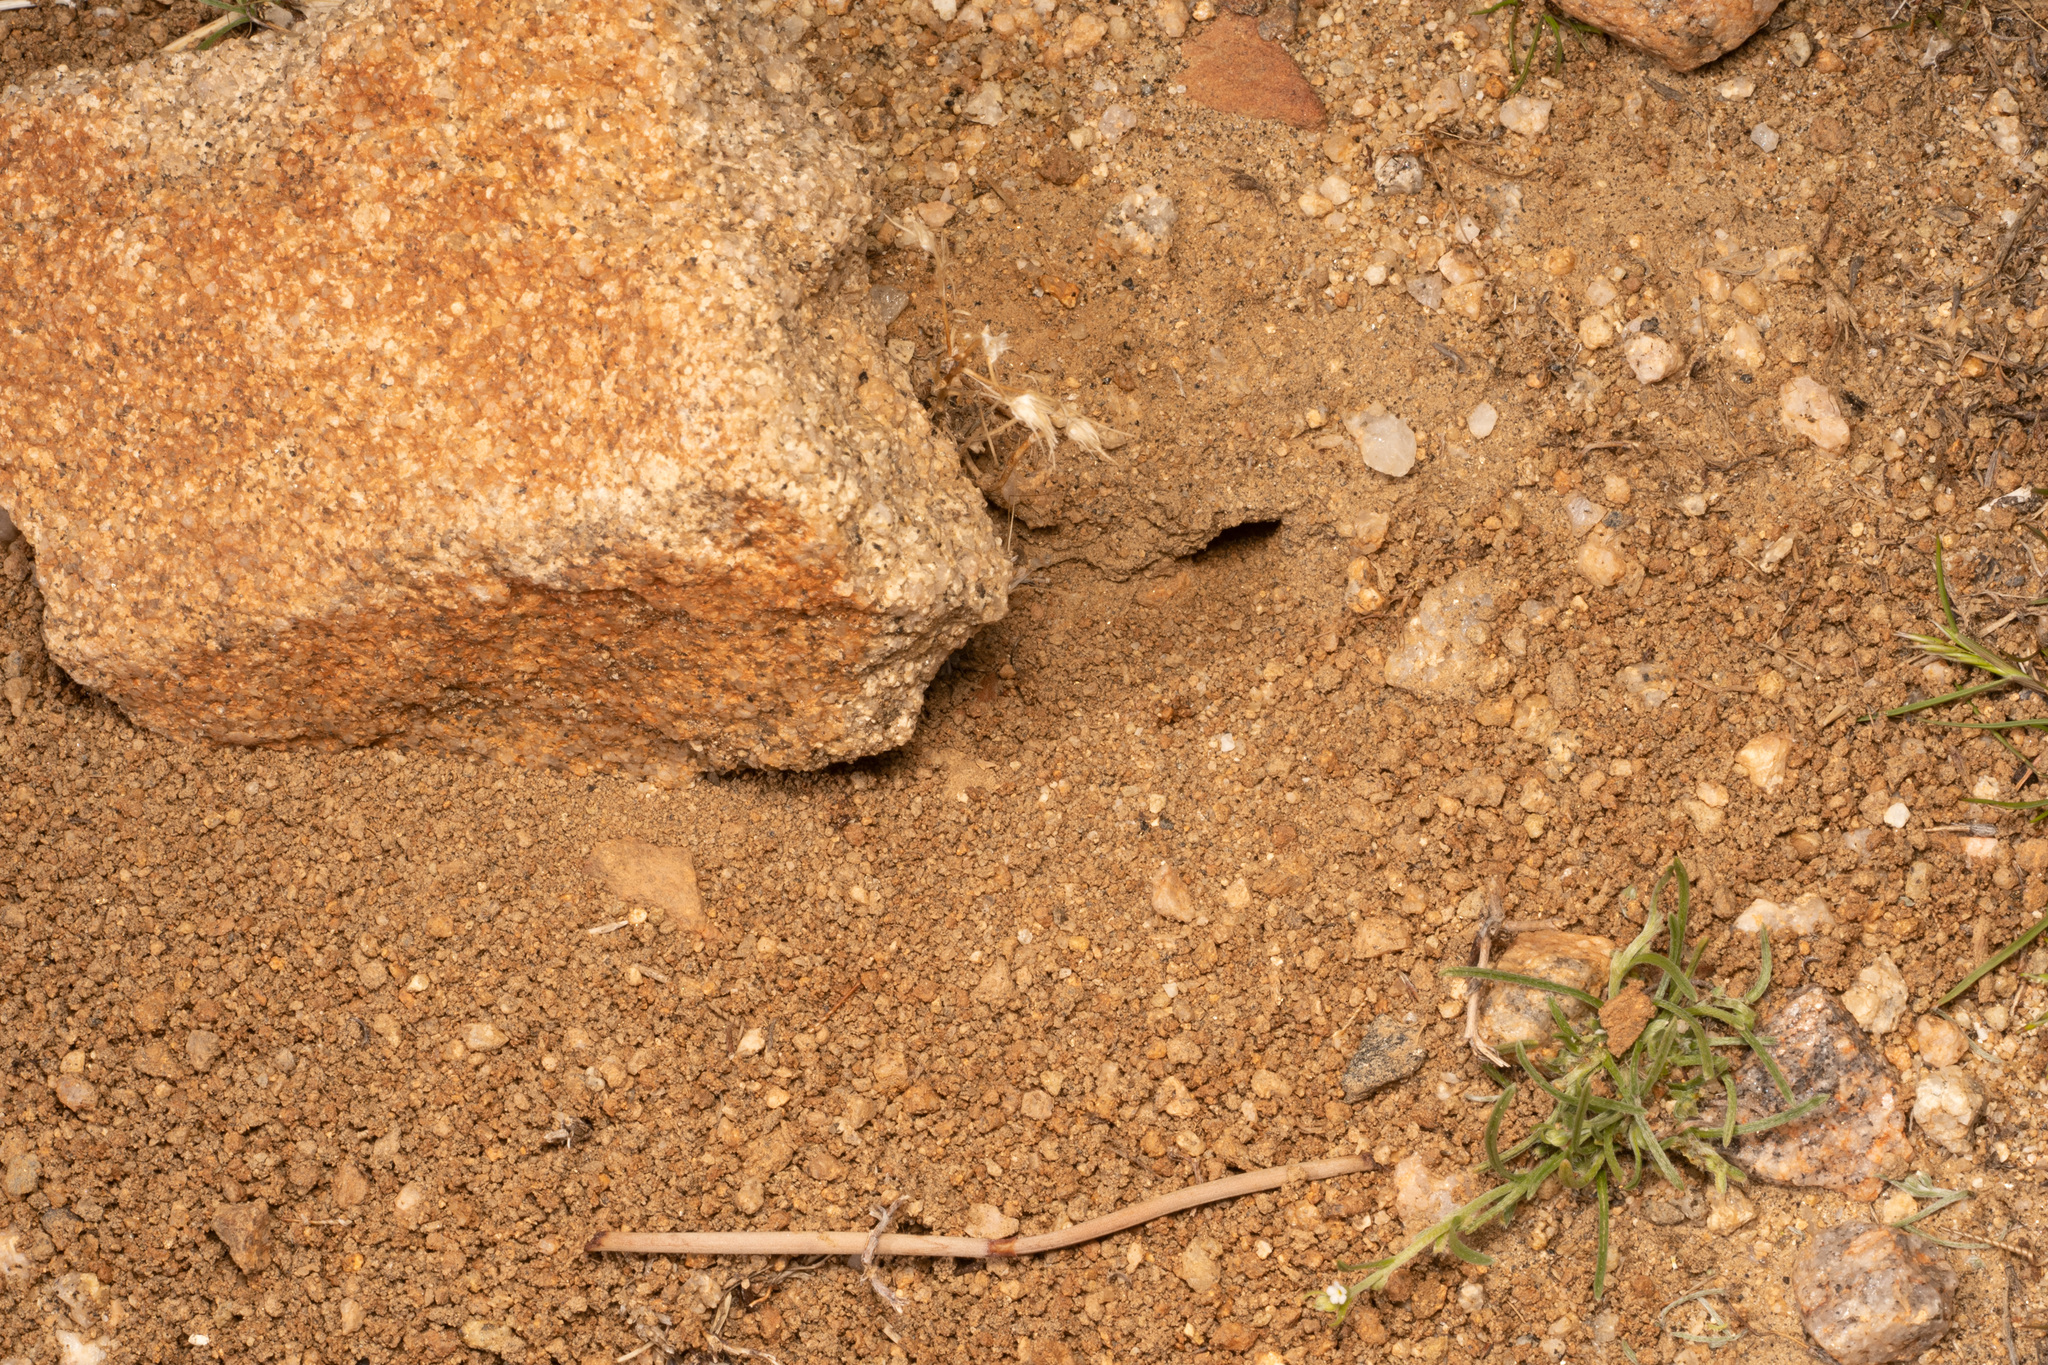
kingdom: Animalia
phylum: Arthropoda
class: Insecta
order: Hymenoptera
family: Formicidae
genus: Pogonomyrmex
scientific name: Pogonomyrmex rugosus
